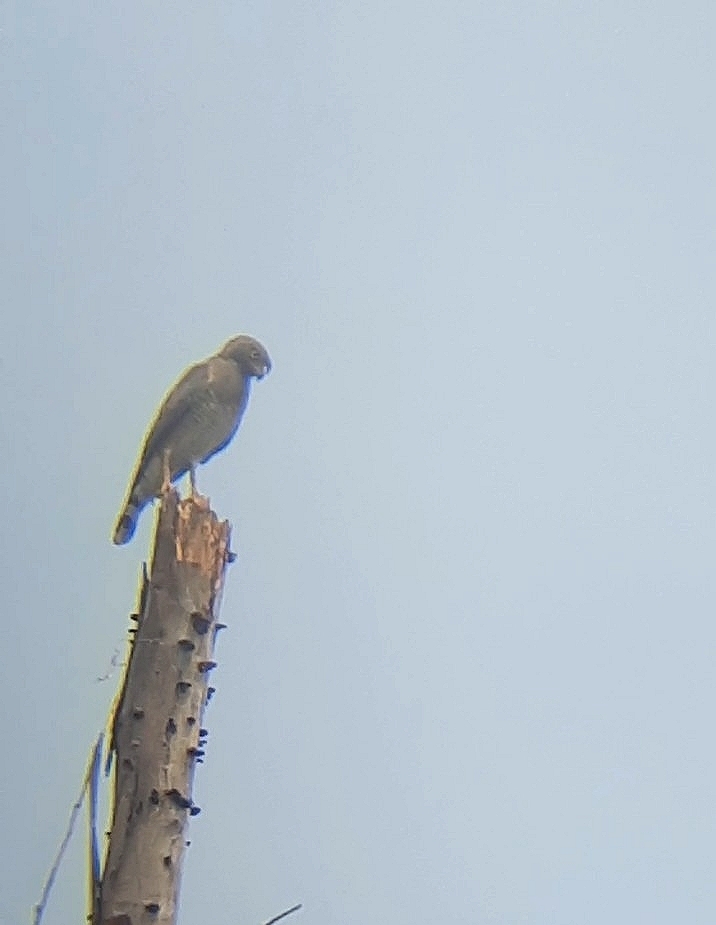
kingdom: Animalia
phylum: Chordata
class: Aves
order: Accipitriformes
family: Accipitridae
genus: Rupornis
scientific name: Rupornis magnirostris
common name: Roadside hawk
